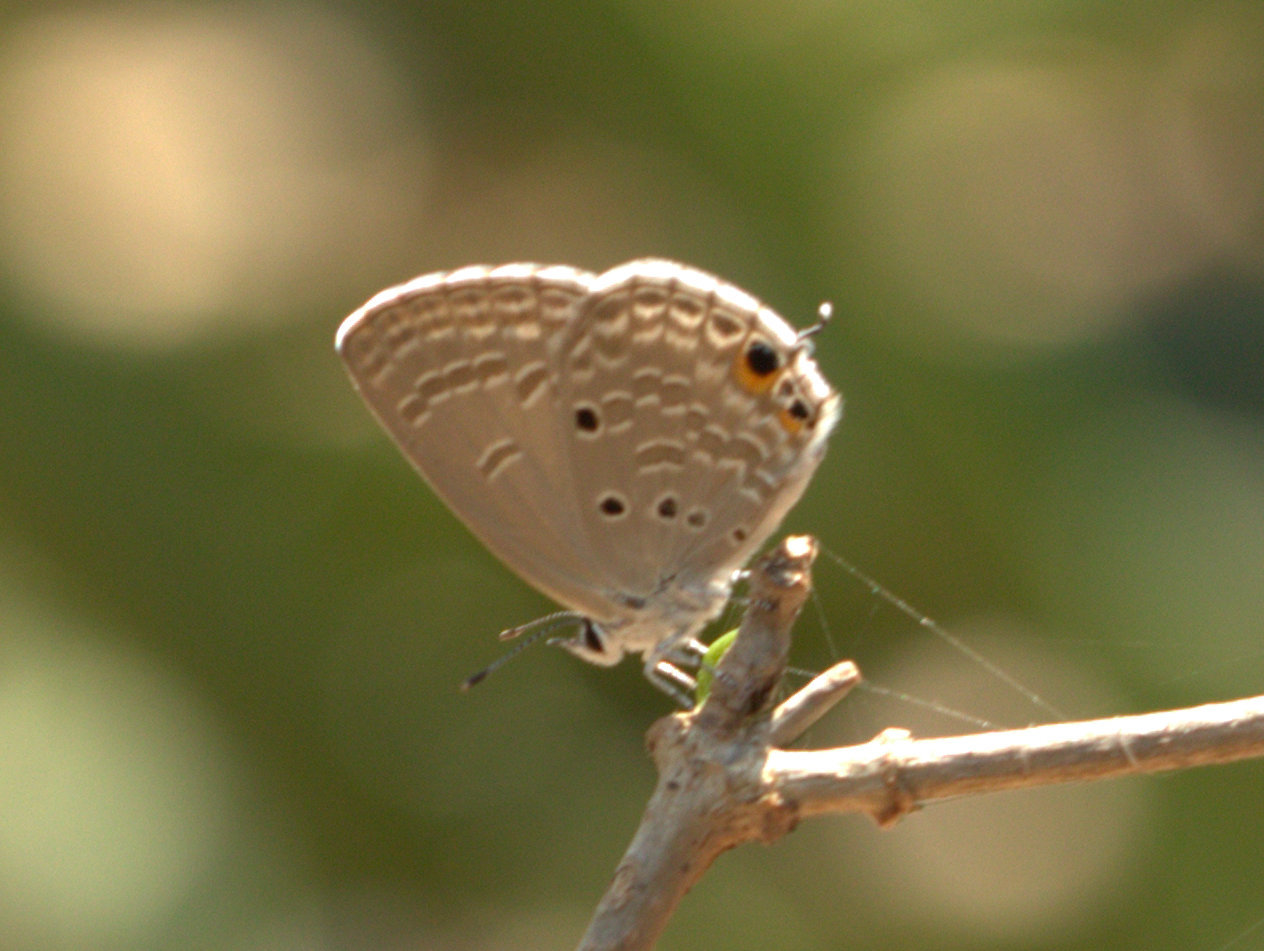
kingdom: Animalia
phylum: Arthropoda
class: Insecta
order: Lepidoptera
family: Lycaenidae
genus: Luthrodes
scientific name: Luthrodes pandava
